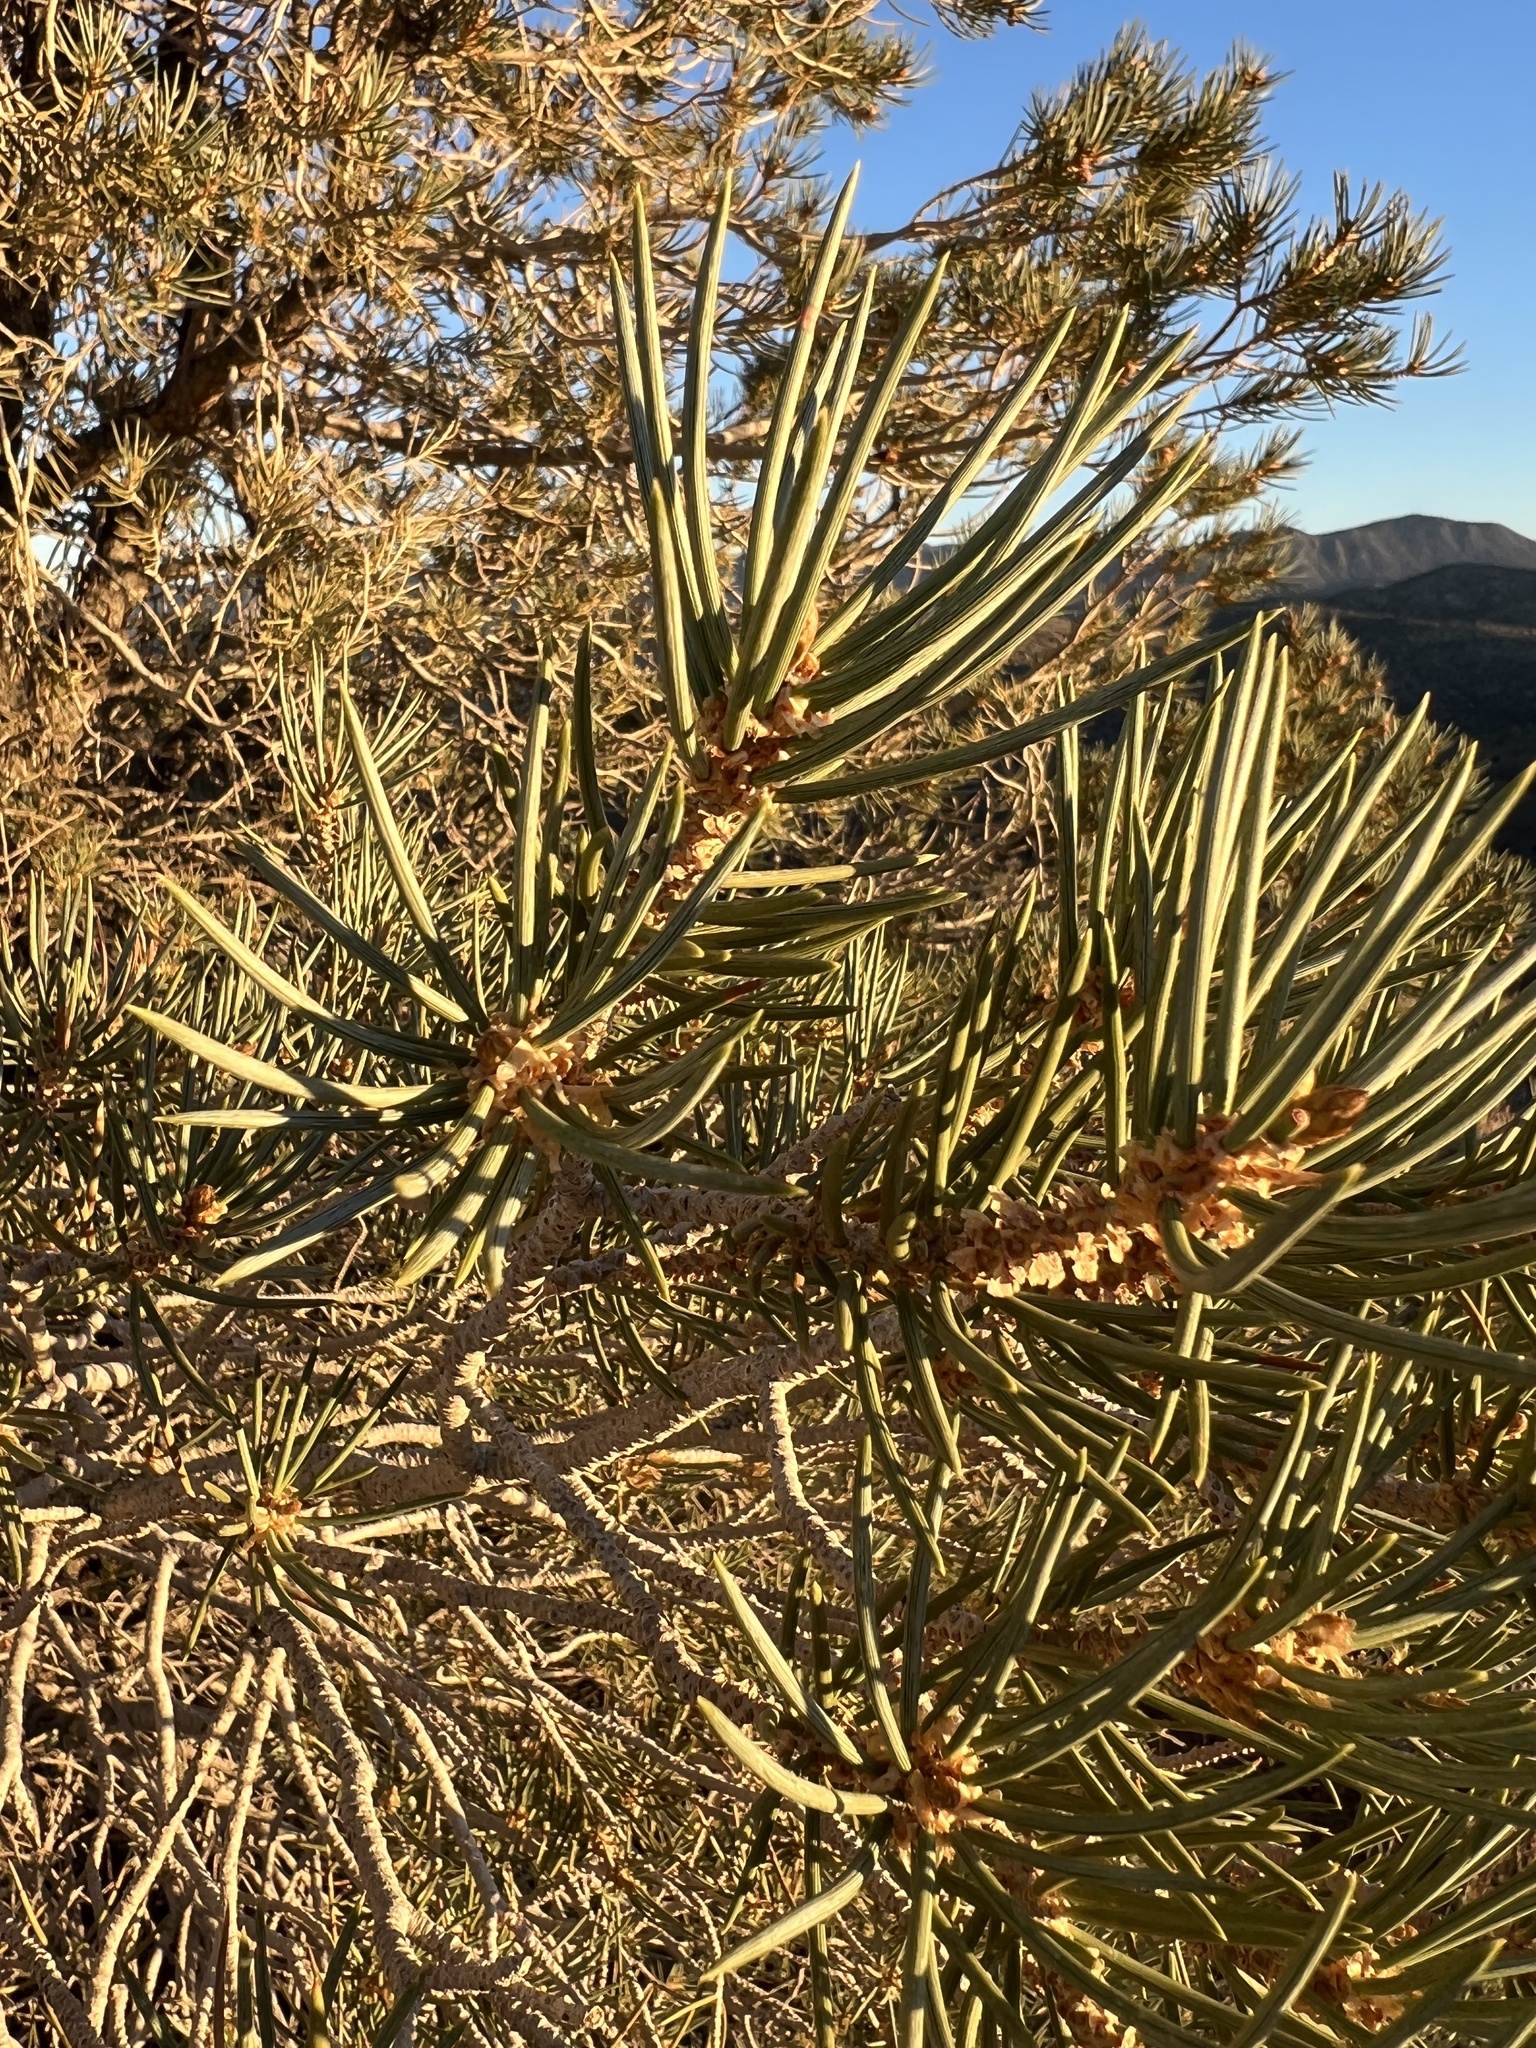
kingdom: Plantae
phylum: Tracheophyta
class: Pinopsida
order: Pinales
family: Pinaceae
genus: Pinus
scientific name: Pinus monophylla
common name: One-leaved nut pine
